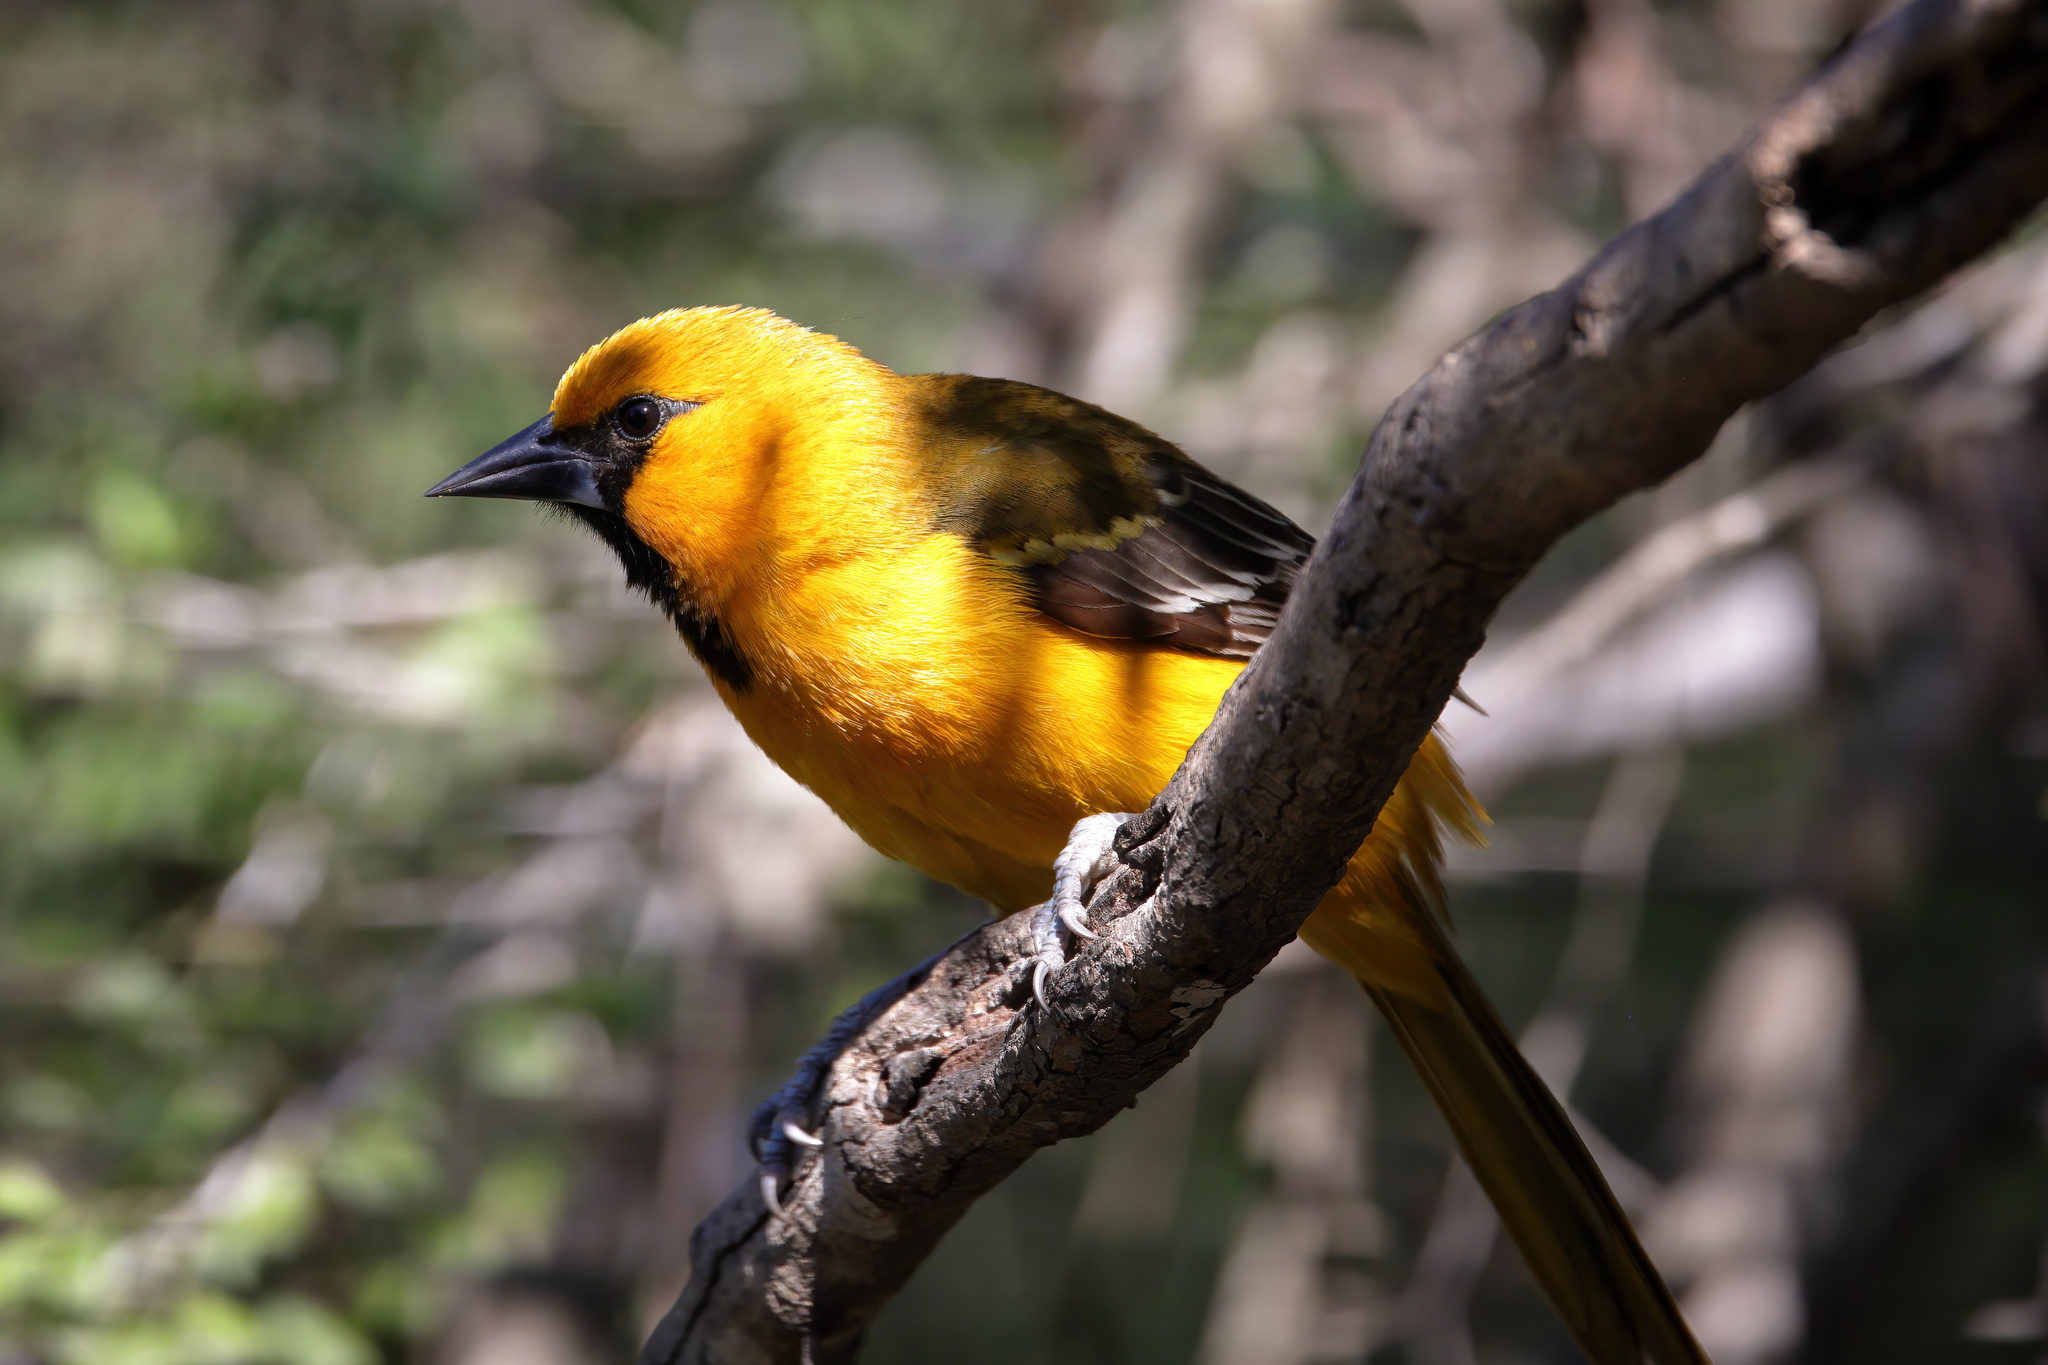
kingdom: Animalia
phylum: Chordata
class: Aves
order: Passeriformes
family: Icteridae
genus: Icterus
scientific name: Icterus gularis
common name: Altamira oriole
